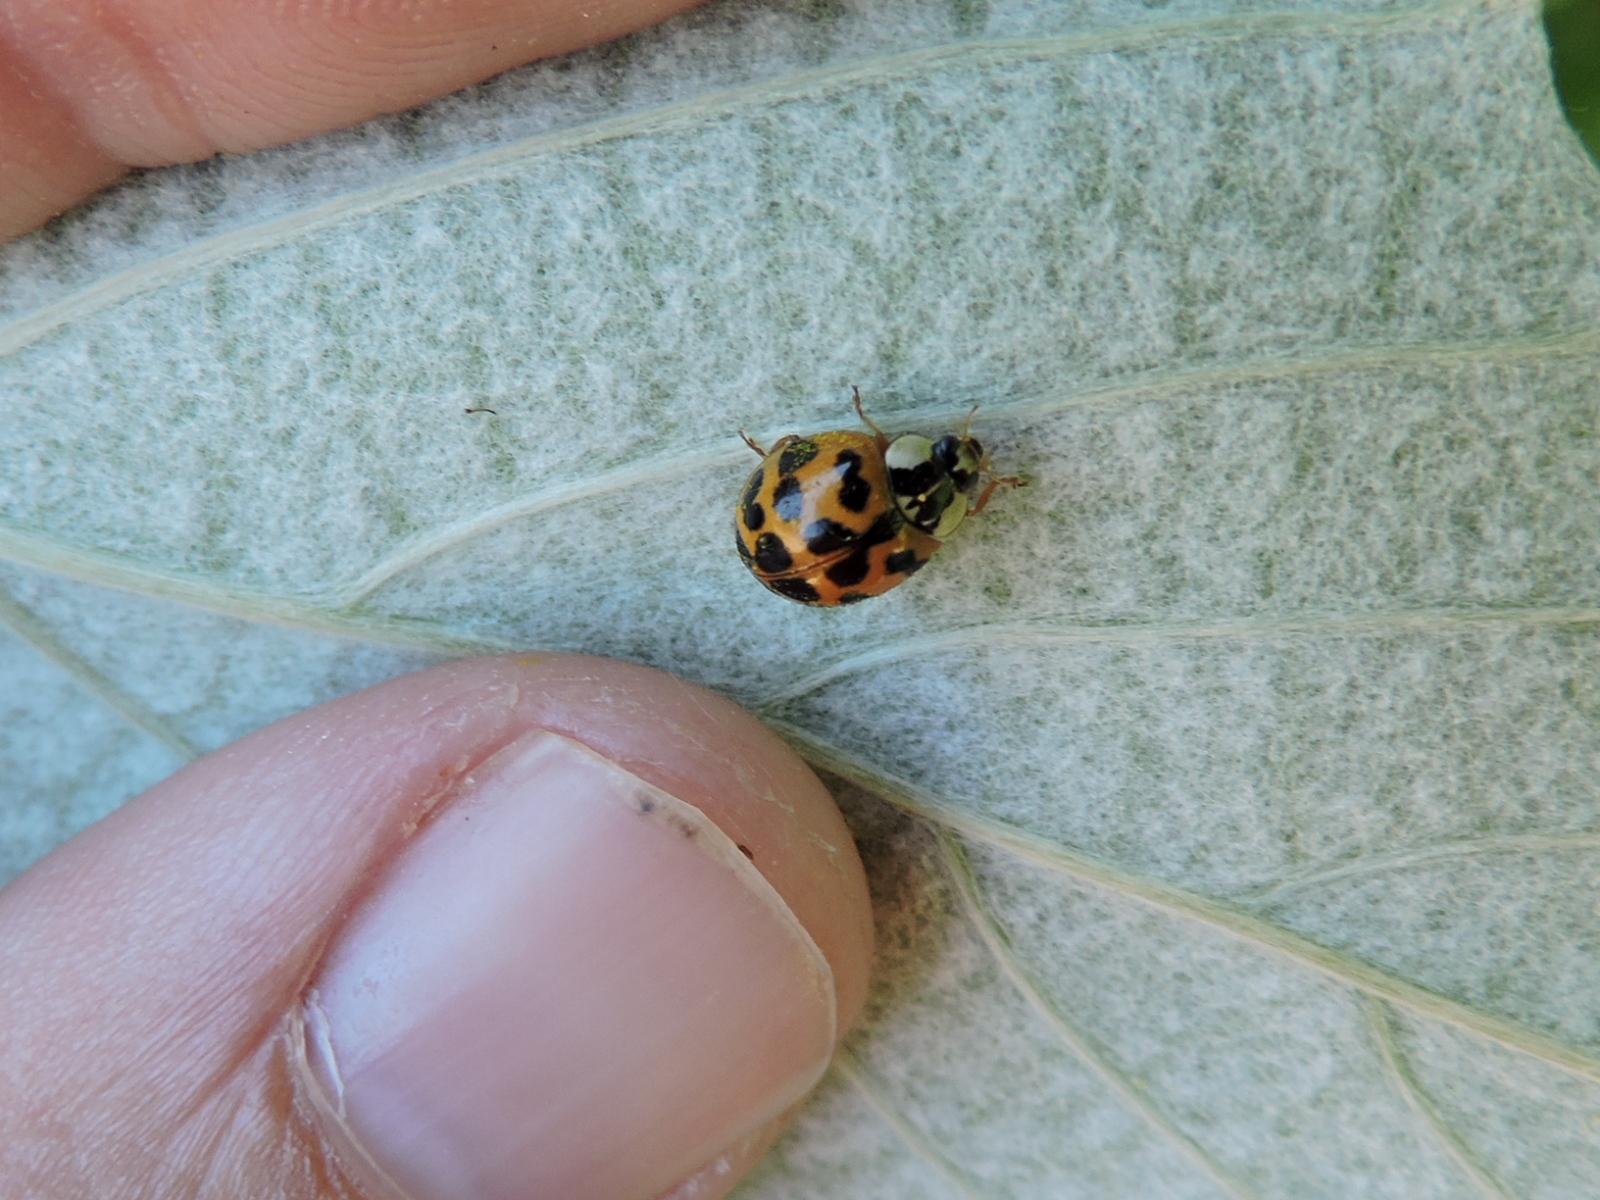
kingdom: Animalia
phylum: Arthropoda
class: Insecta
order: Coleoptera
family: Coccinellidae
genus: Harmonia
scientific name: Harmonia axyridis
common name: Harlequin ladybird
